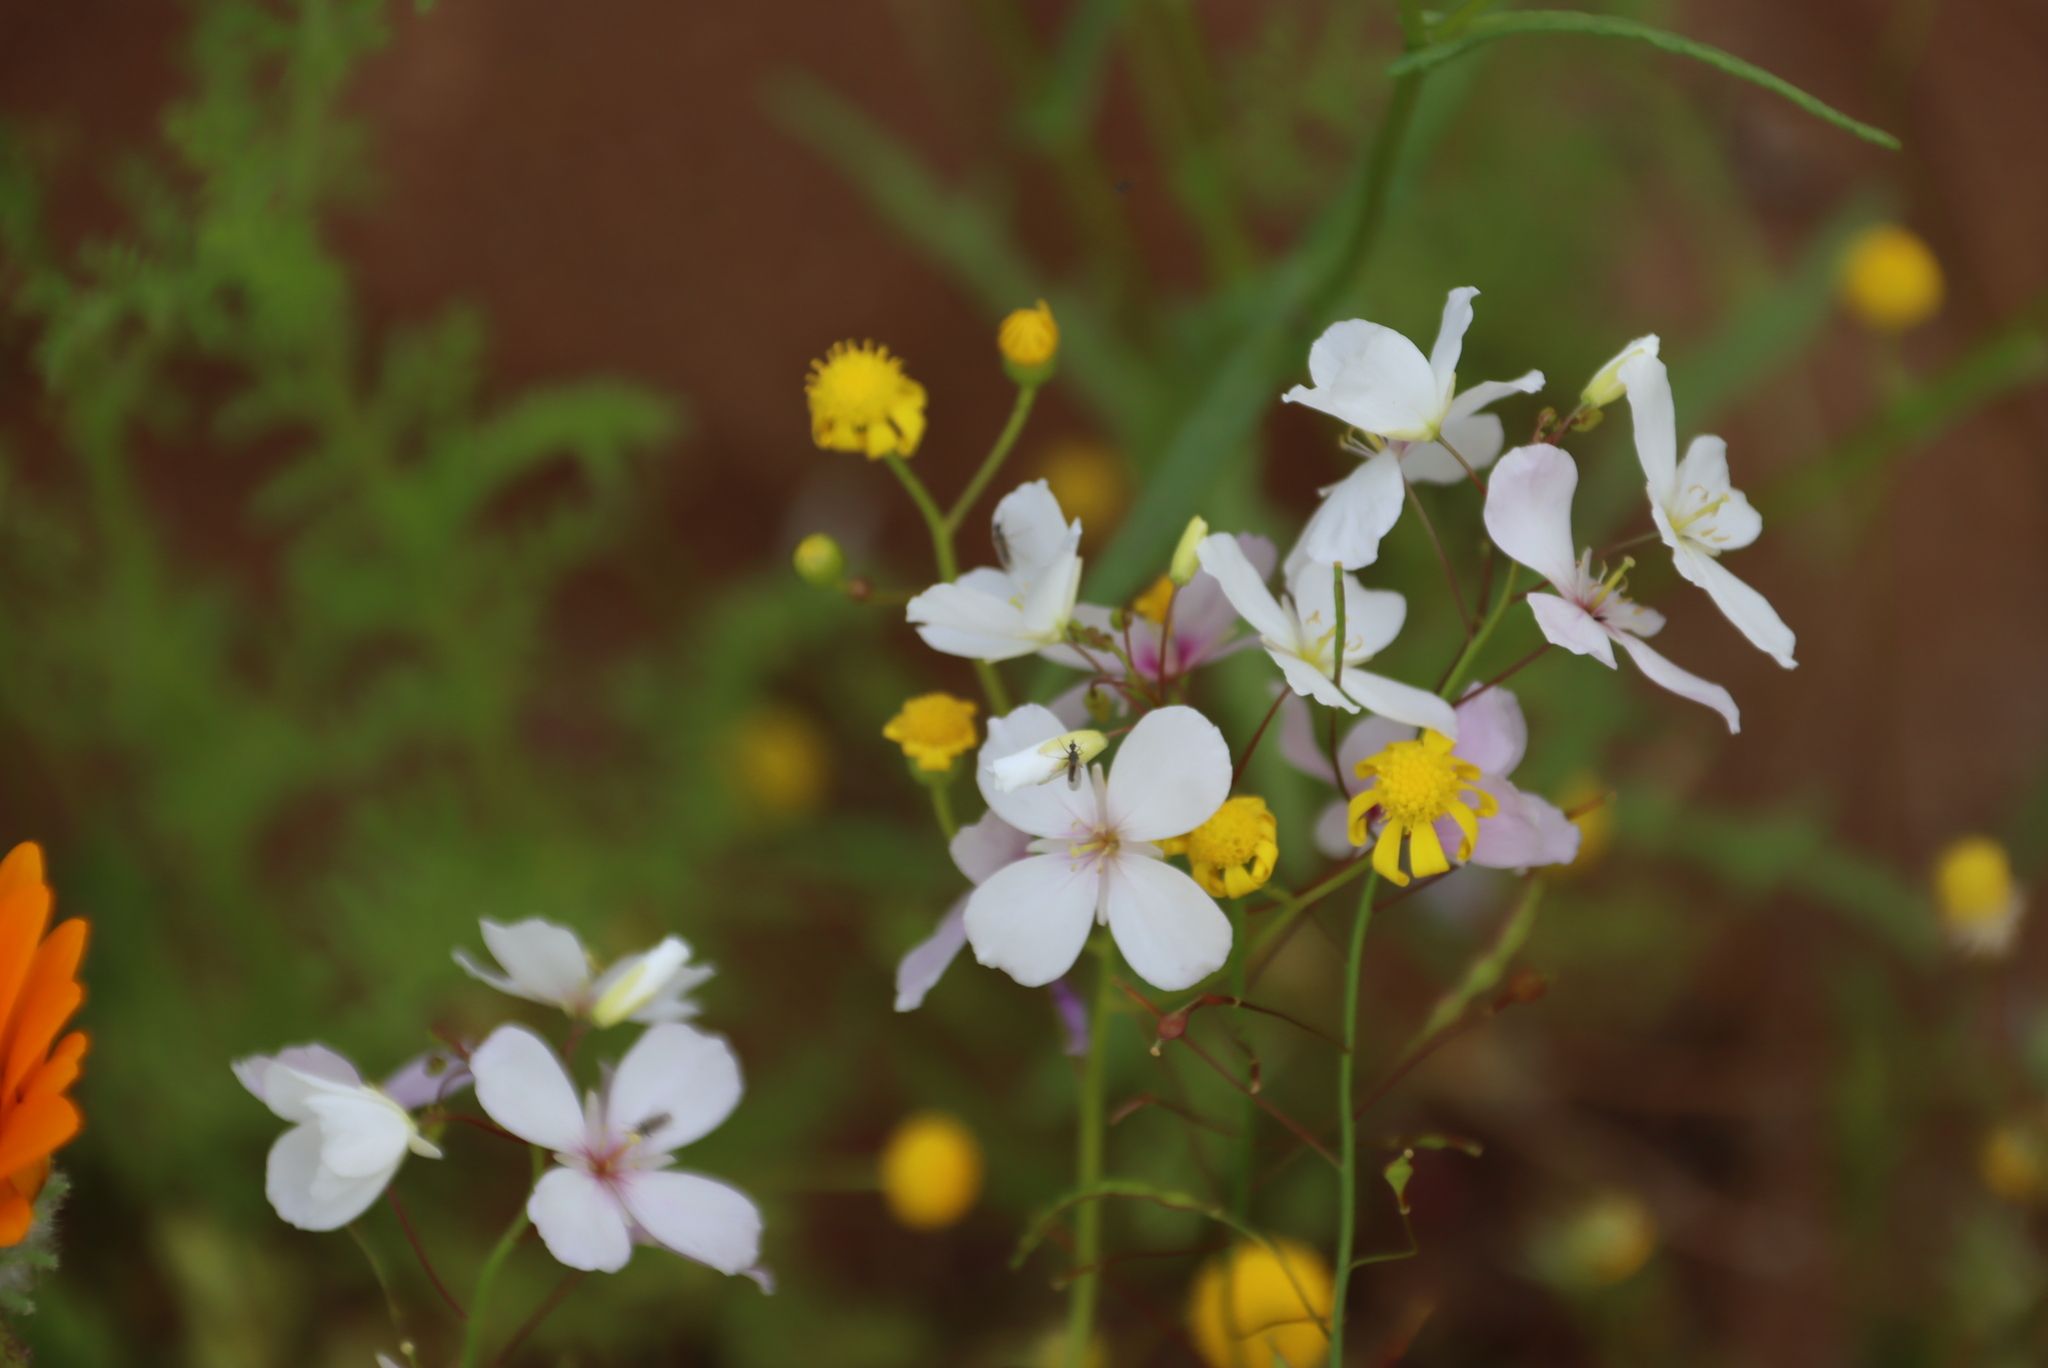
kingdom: Plantae
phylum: Tracheophyta
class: Magnoliopsida
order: Brassicales
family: Brassicaceae
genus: Heliophila
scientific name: Heliophila variabilis
